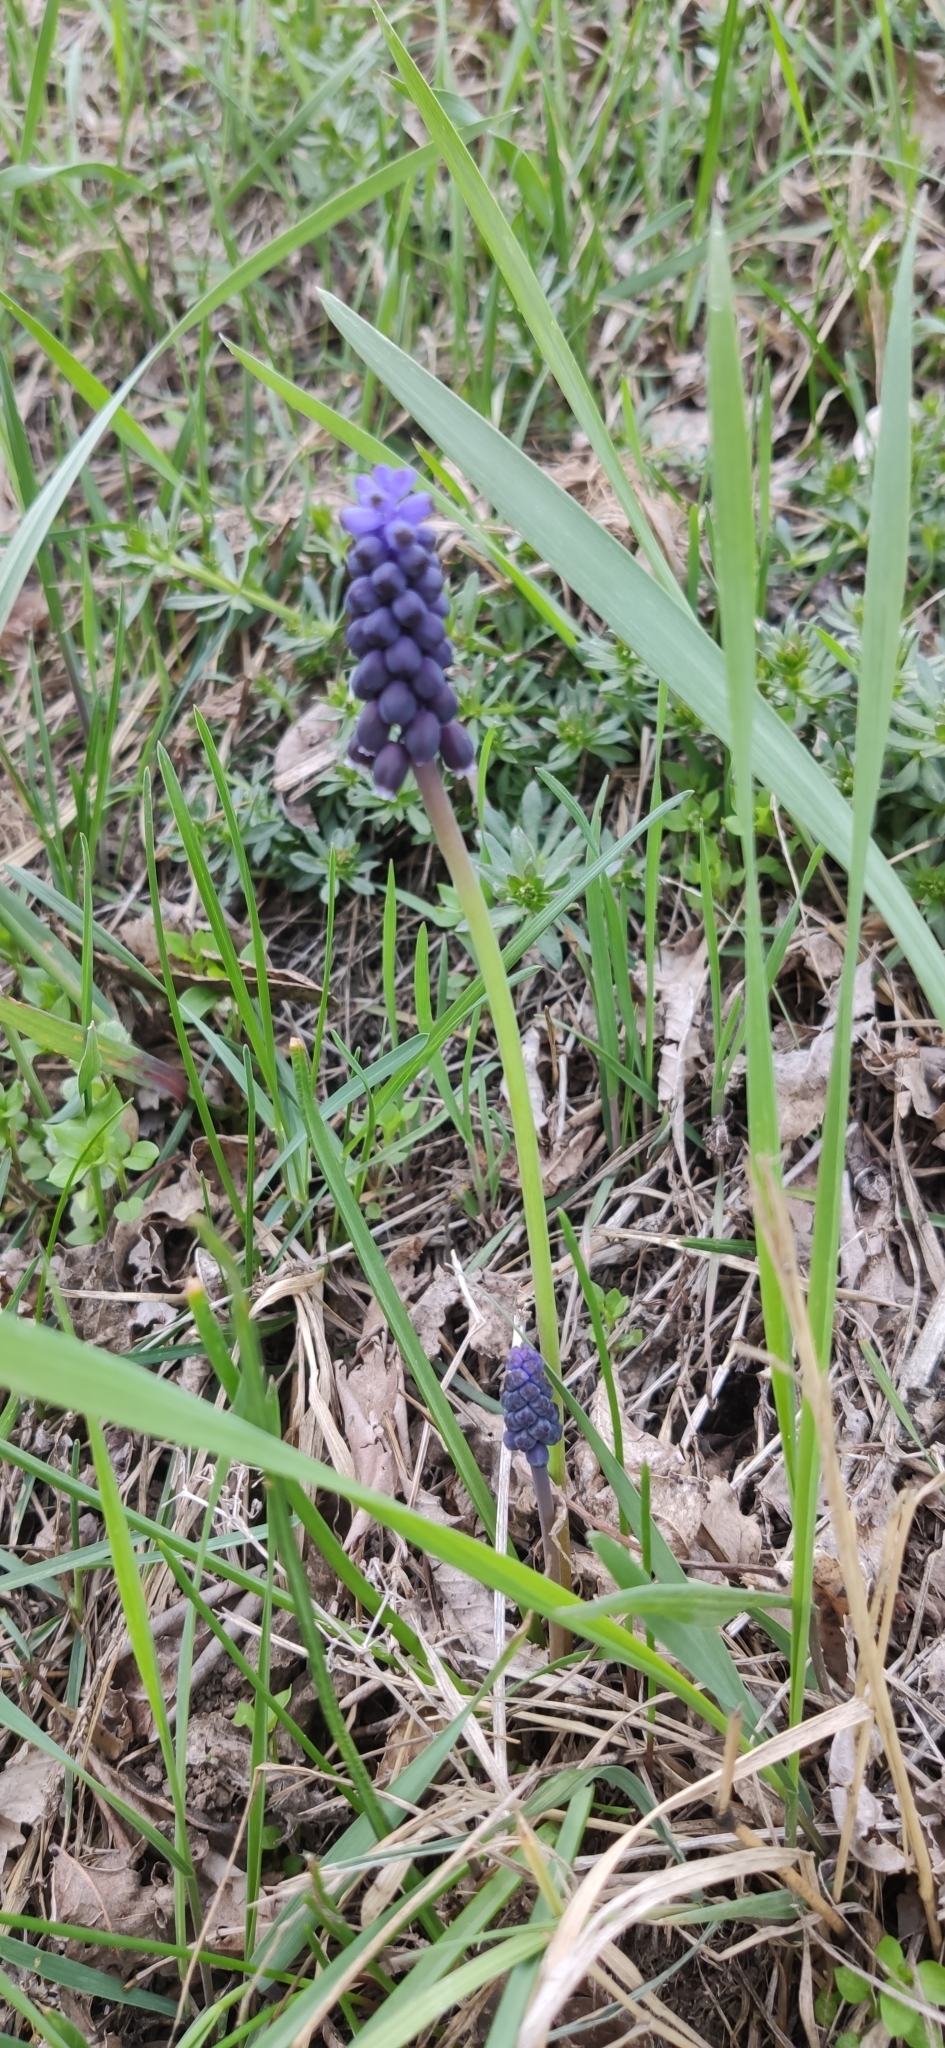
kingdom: Plantae
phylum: Tracheophyta
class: Liliopsida
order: Asparagales
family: Asparagaceae
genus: Muscari
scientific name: Muscari neglectum
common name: Grape-hyacinth
